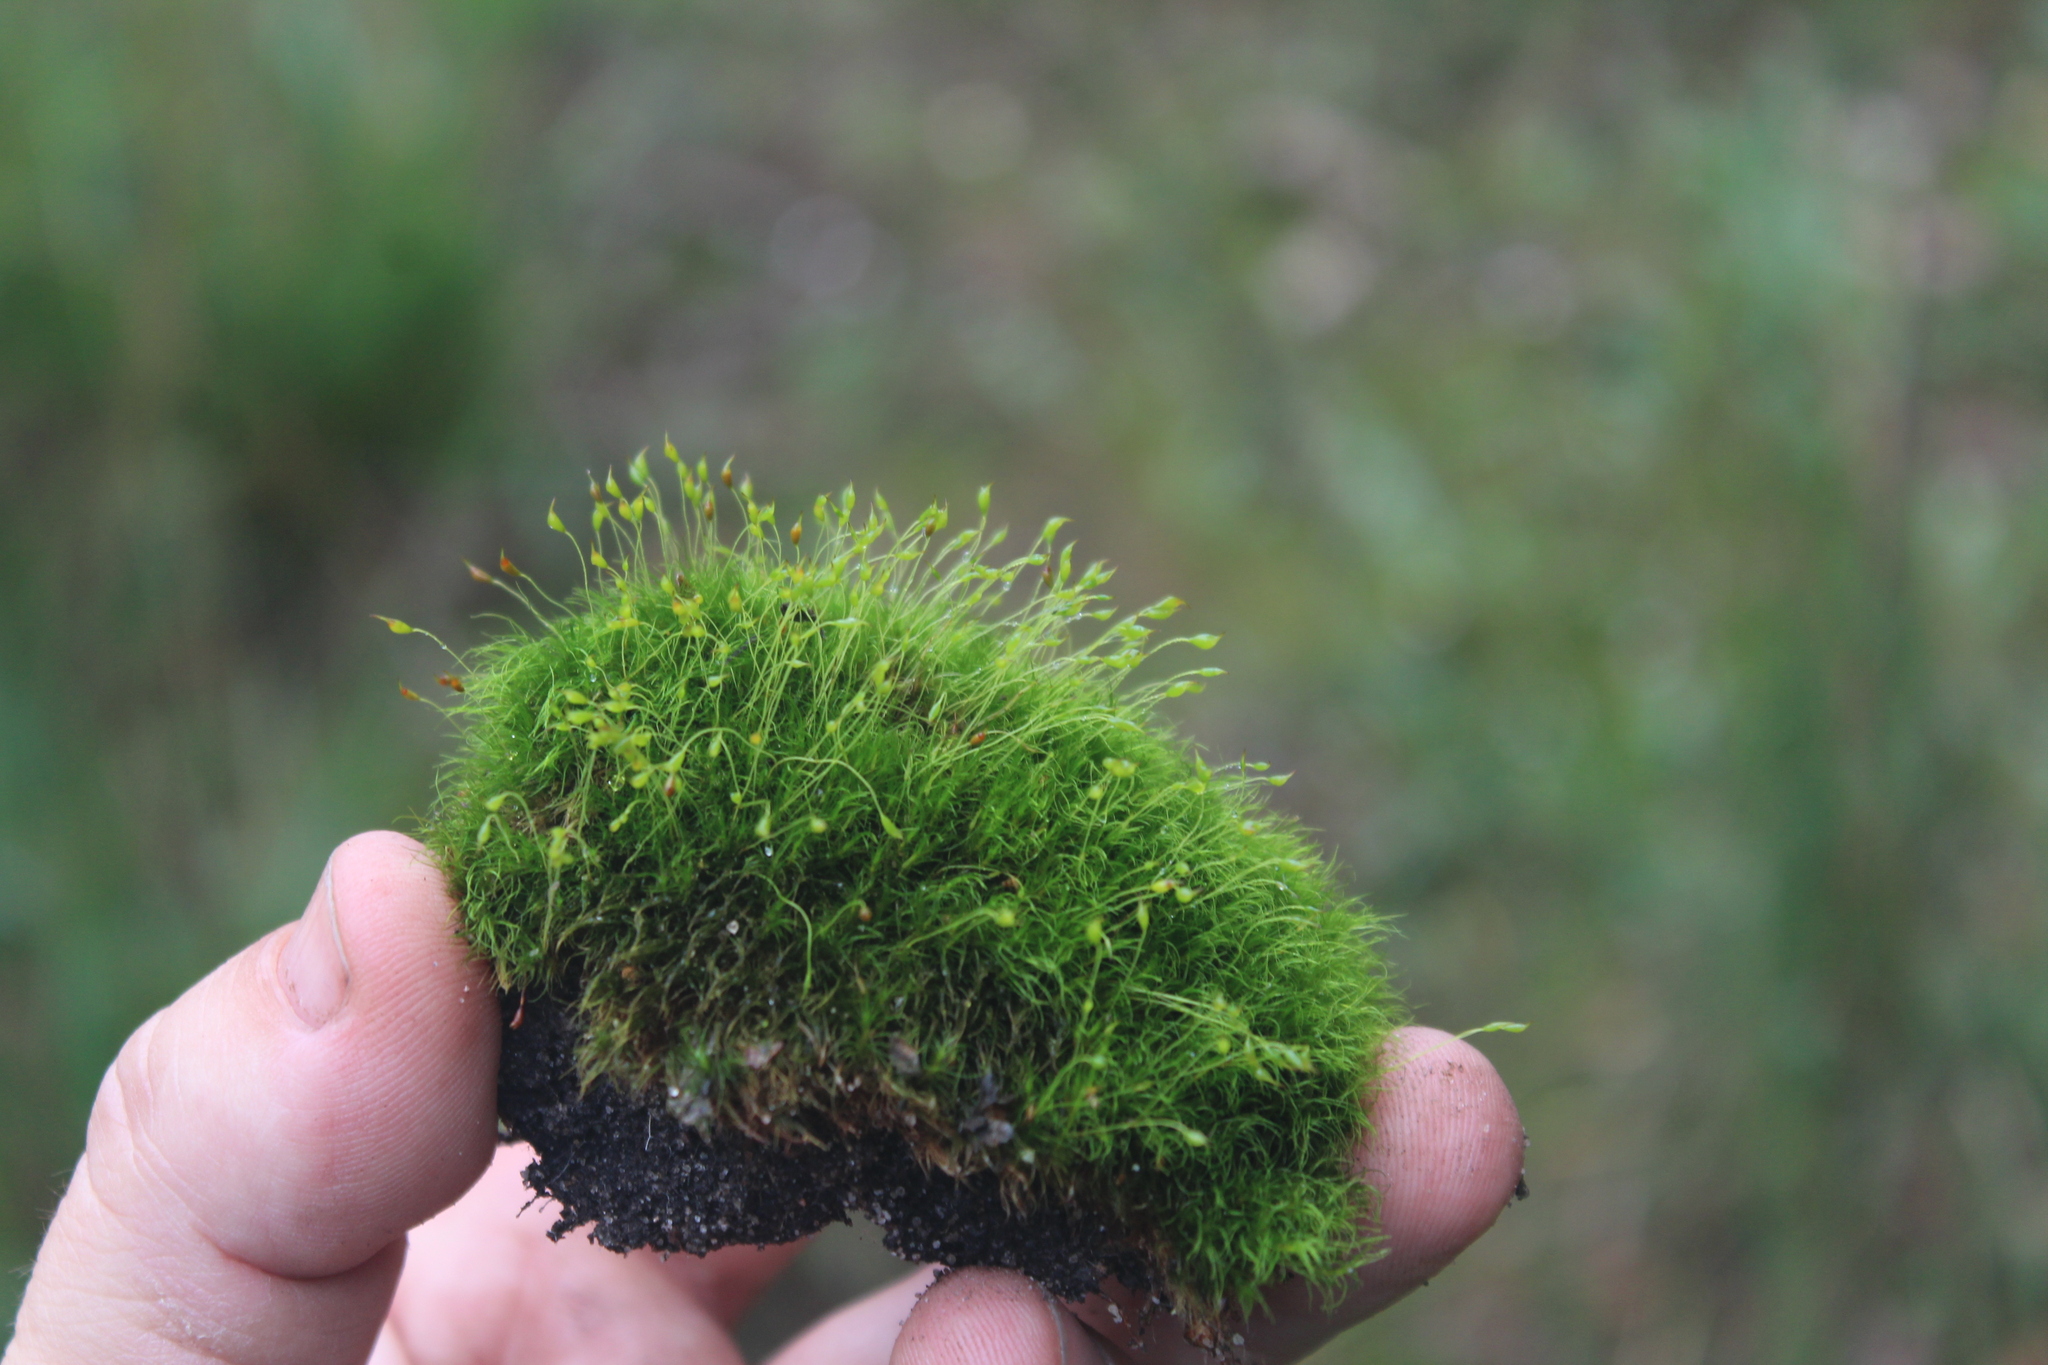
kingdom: Plantae
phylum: Bryophyta
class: Bryopsida
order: Dicranales
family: Dicranellaceae
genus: Dicranella
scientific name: Dicranella heteromalla
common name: Silky forklet moss
